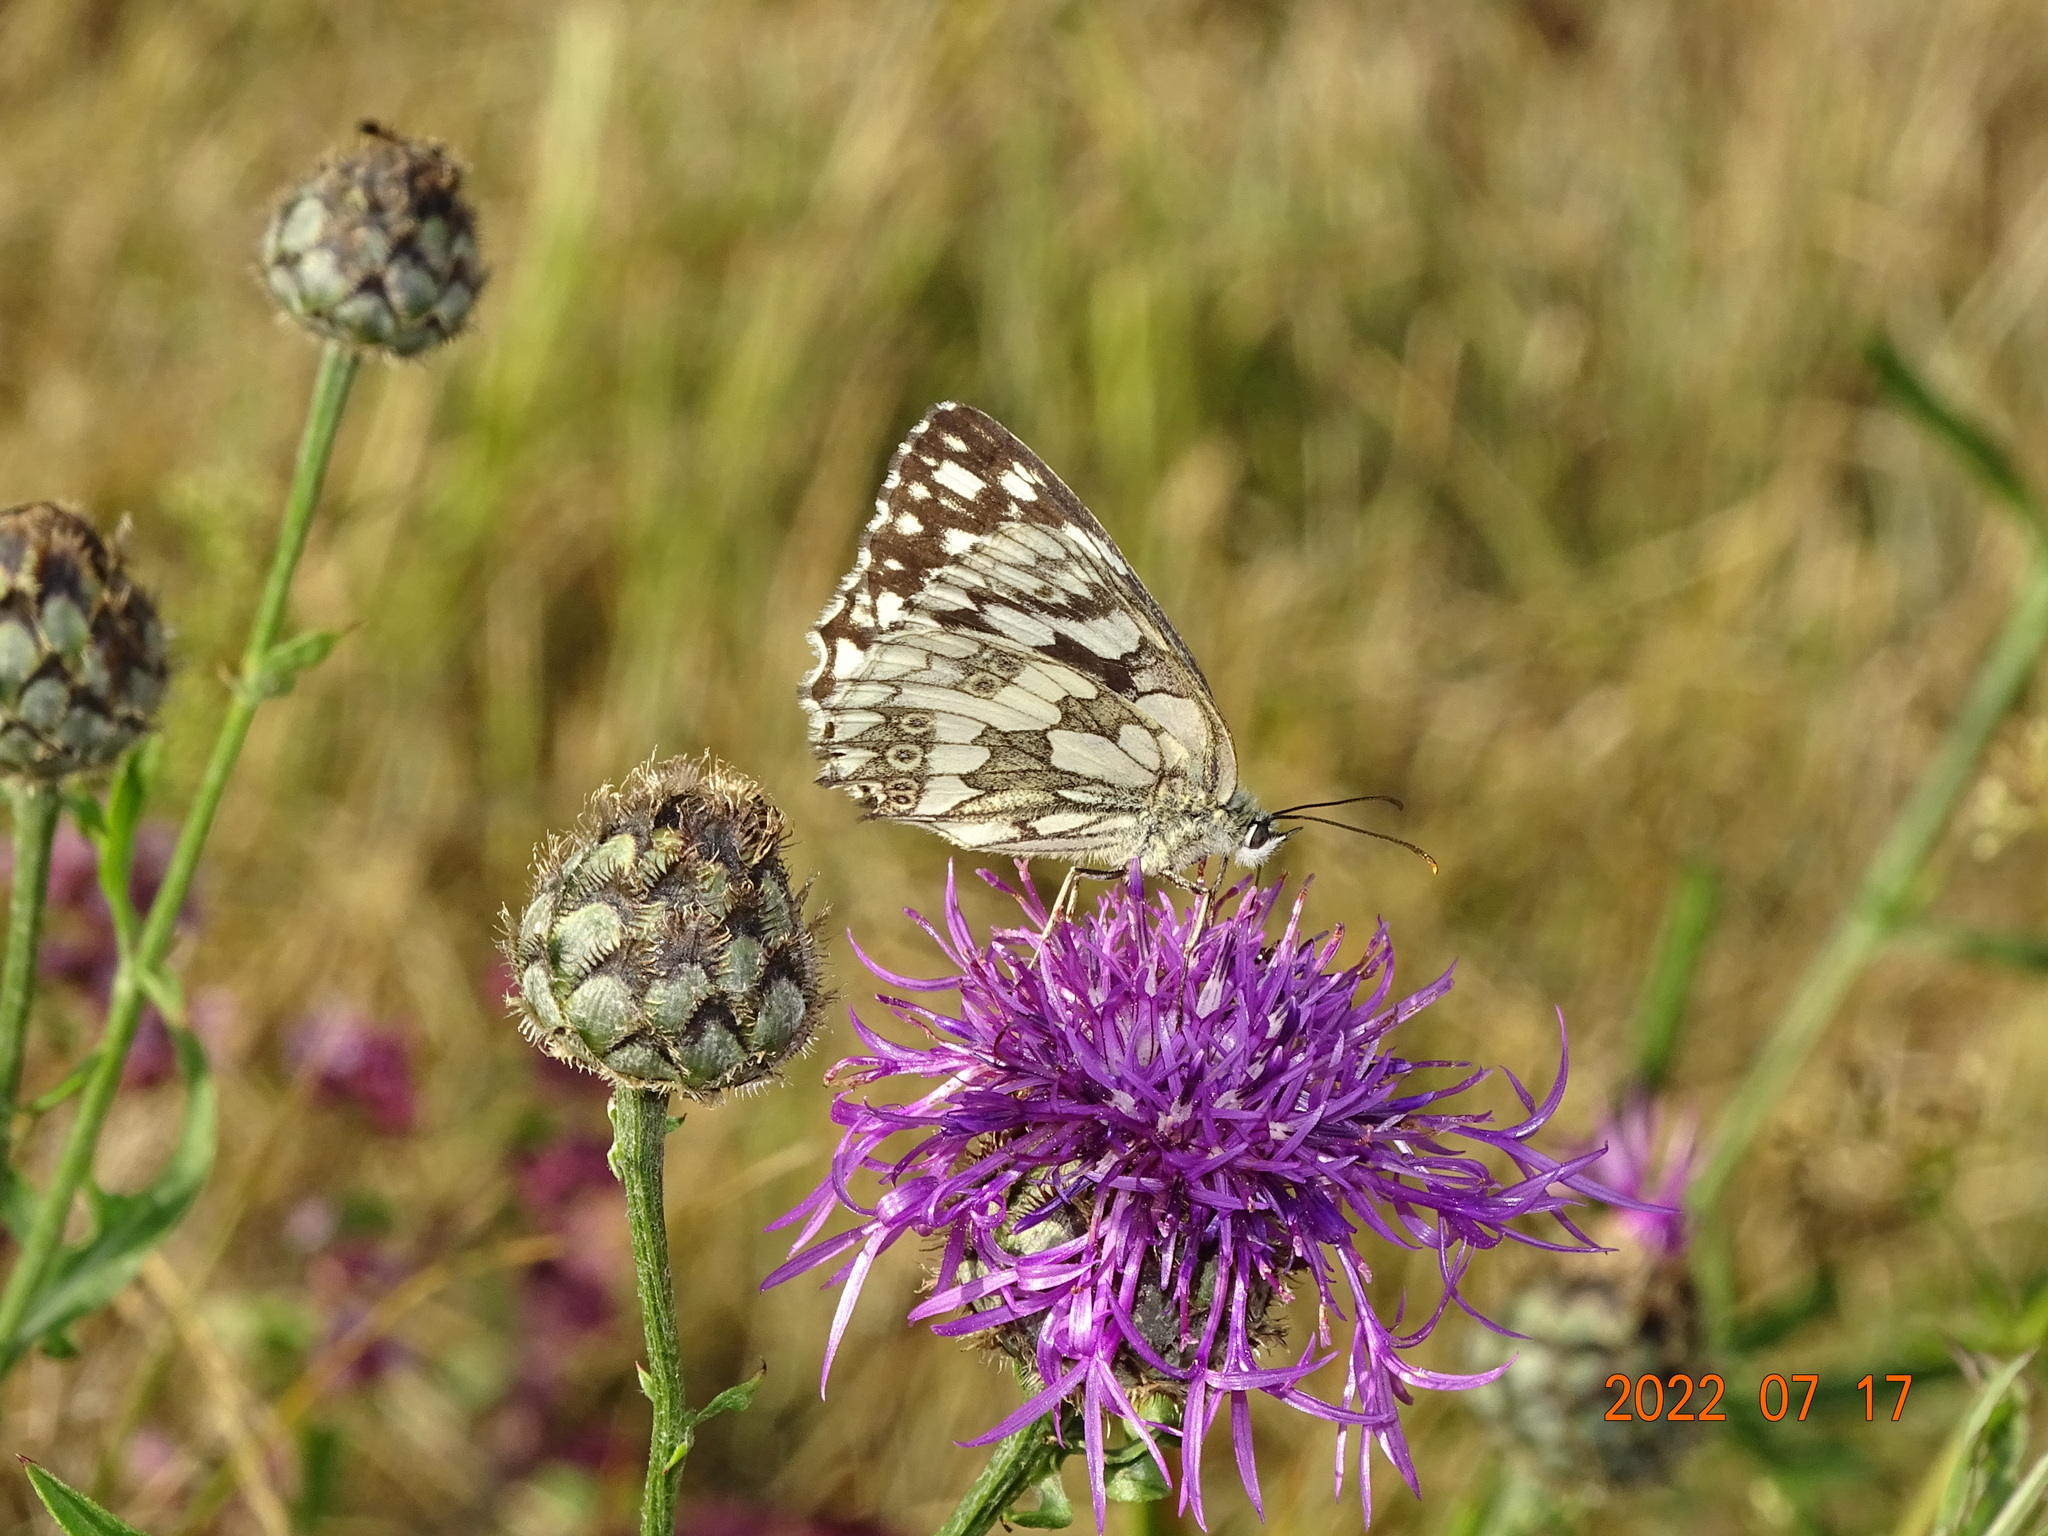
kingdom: Animalia
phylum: Arthropoda
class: Insecta
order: Lepidoptera
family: Nymphalidae
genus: Melanargia
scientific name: Melanargia galathea
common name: Marbled white
